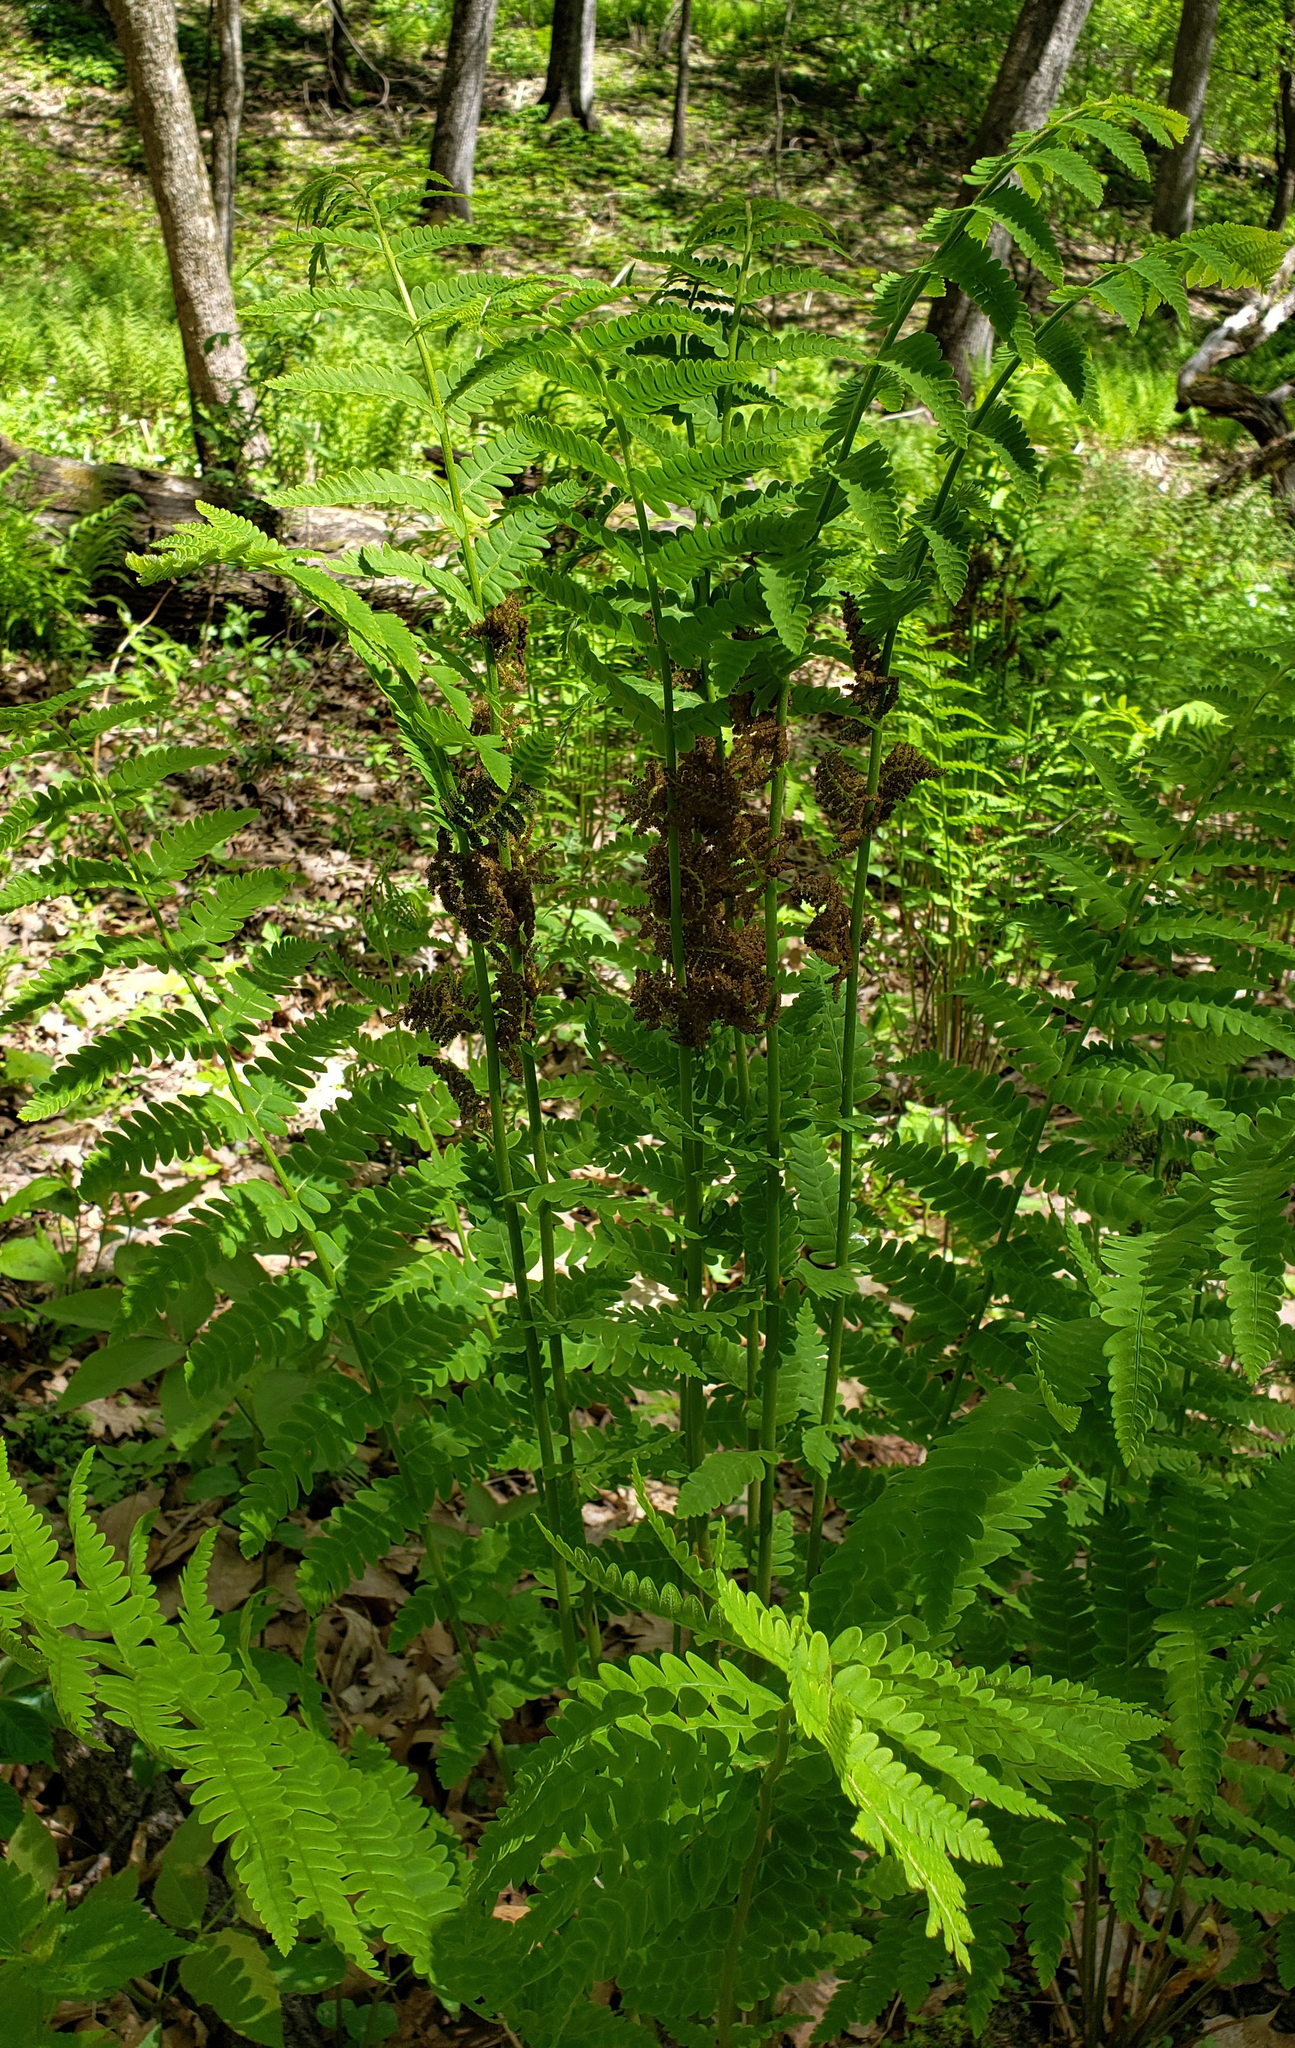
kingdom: Plantae
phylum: Tracheophyta
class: Polypodiopsida
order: Osmundales
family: Osmundaceae
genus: Claytosmunda
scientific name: Claytosmunda claytoniana
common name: Clayton's fern
